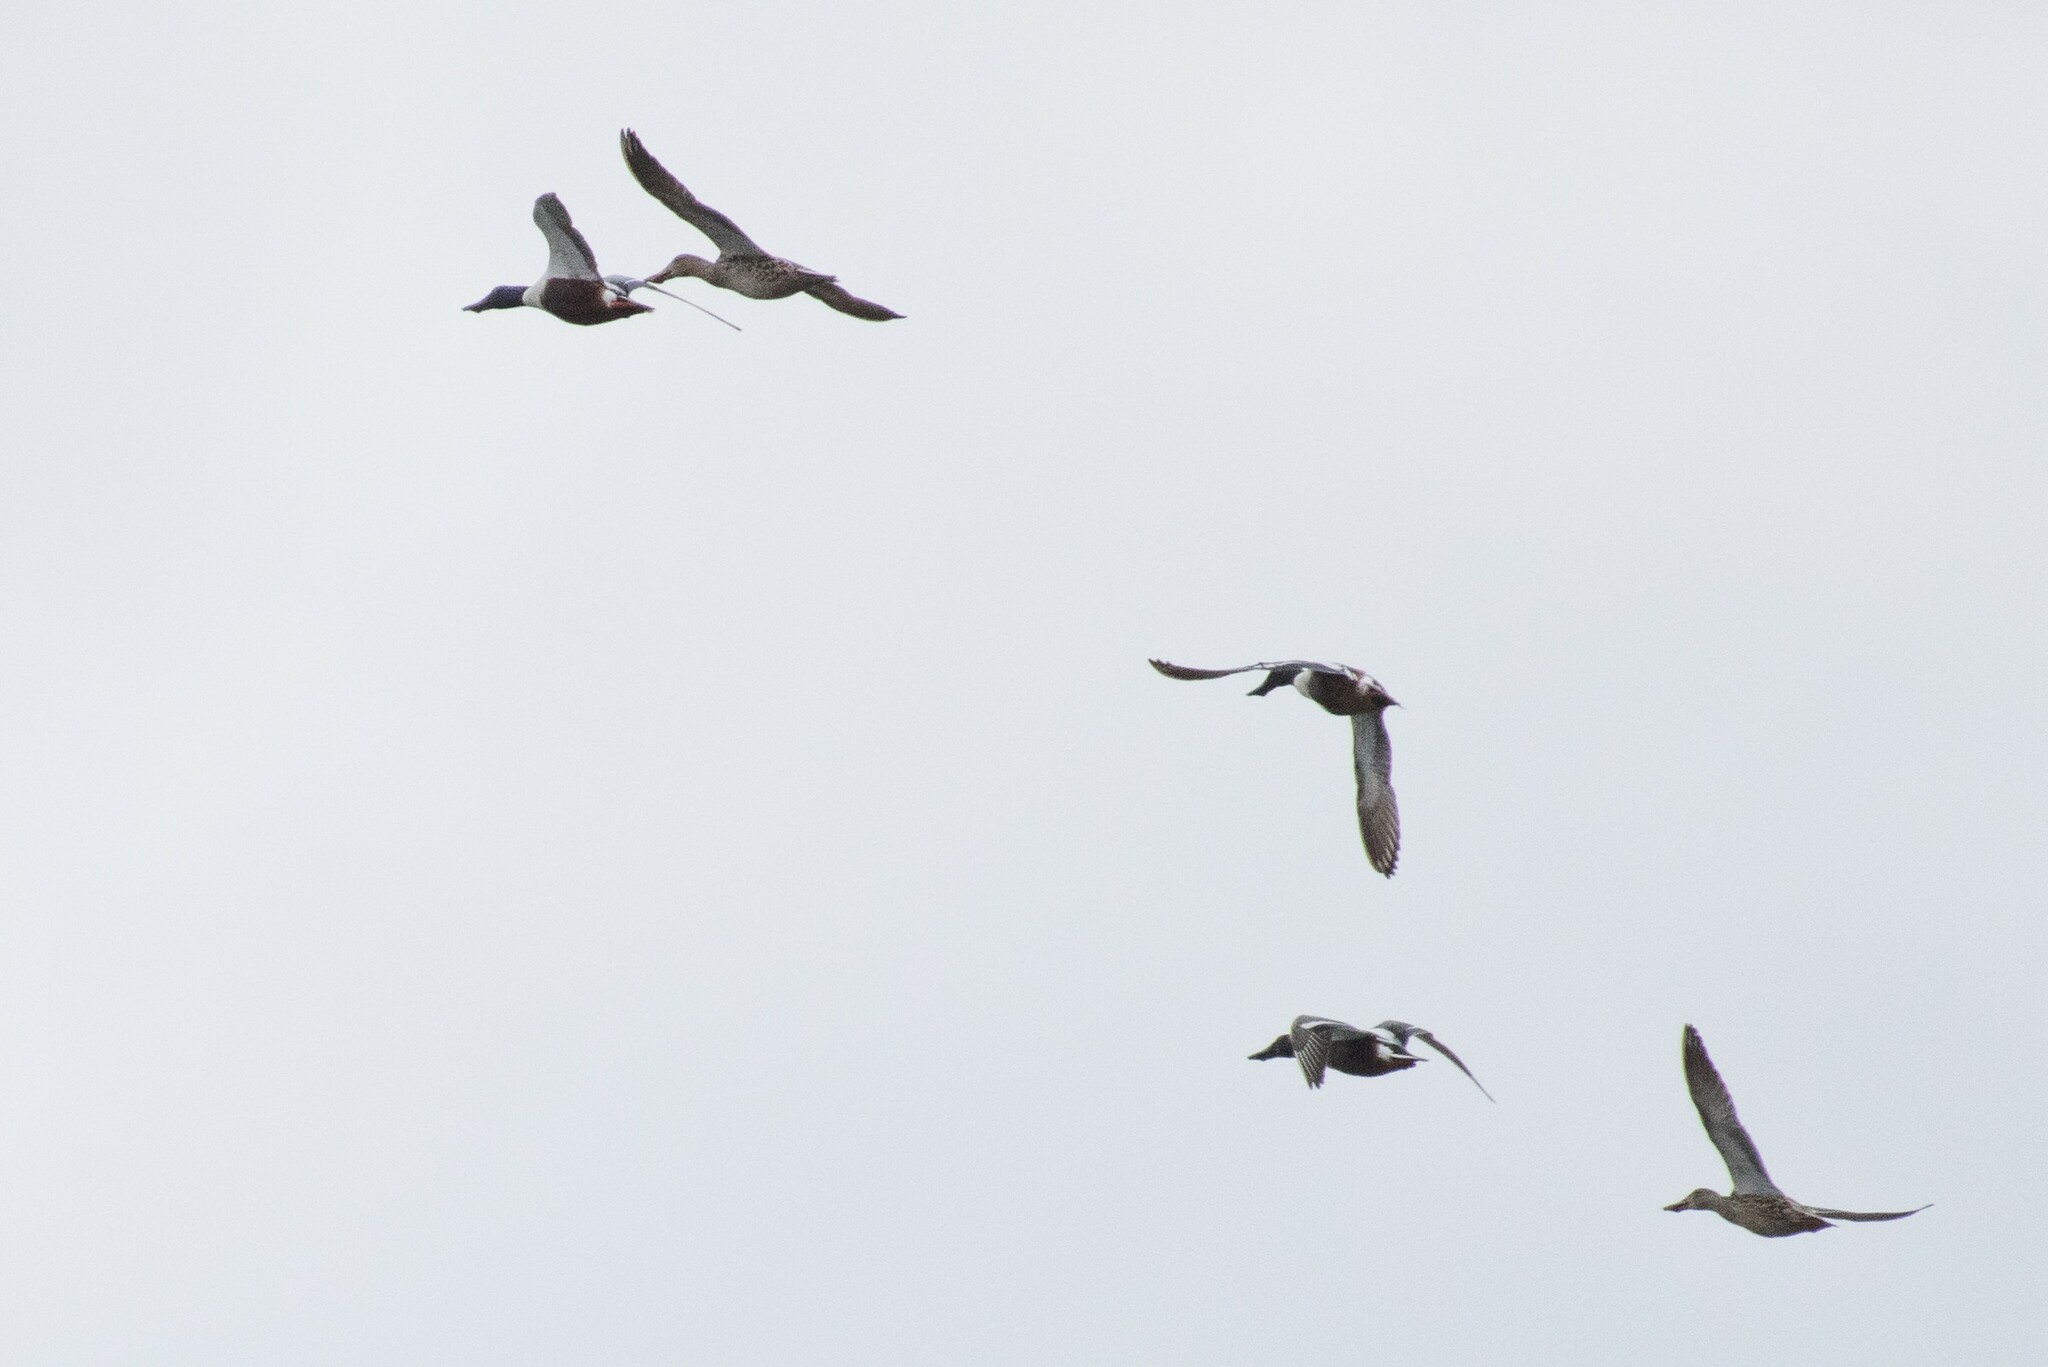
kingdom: Animalia
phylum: Chordata
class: Aves
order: Anseriformes
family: Anatidae
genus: Spatula
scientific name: Spatula clypeata
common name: Northern shoveler
